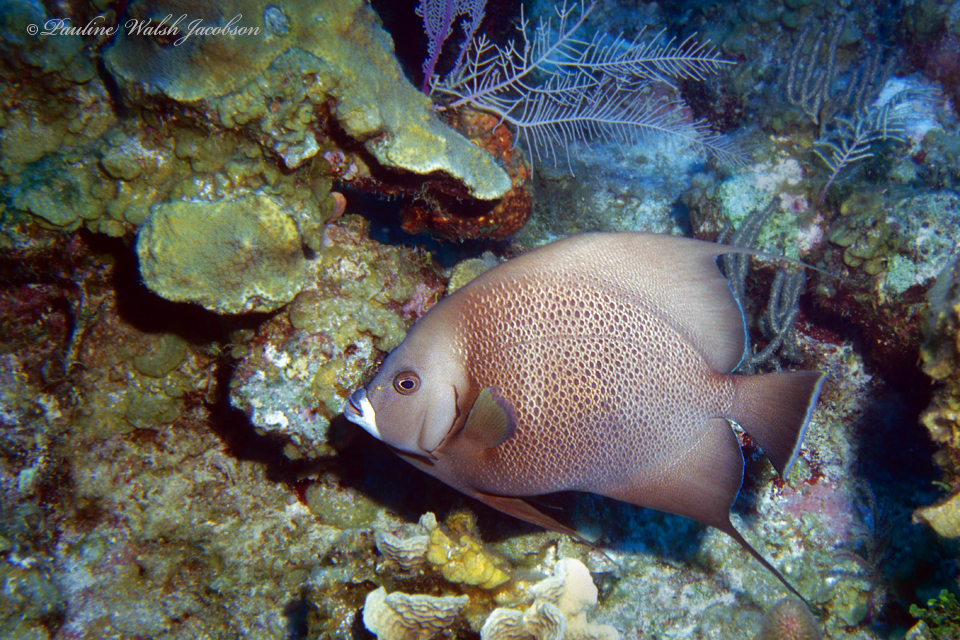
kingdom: Animalia
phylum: Chordata
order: Perciformes
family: Pomacanthidae
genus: Pomacanthus
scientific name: Pomacanthus arcuatus
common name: Gray angelfish
